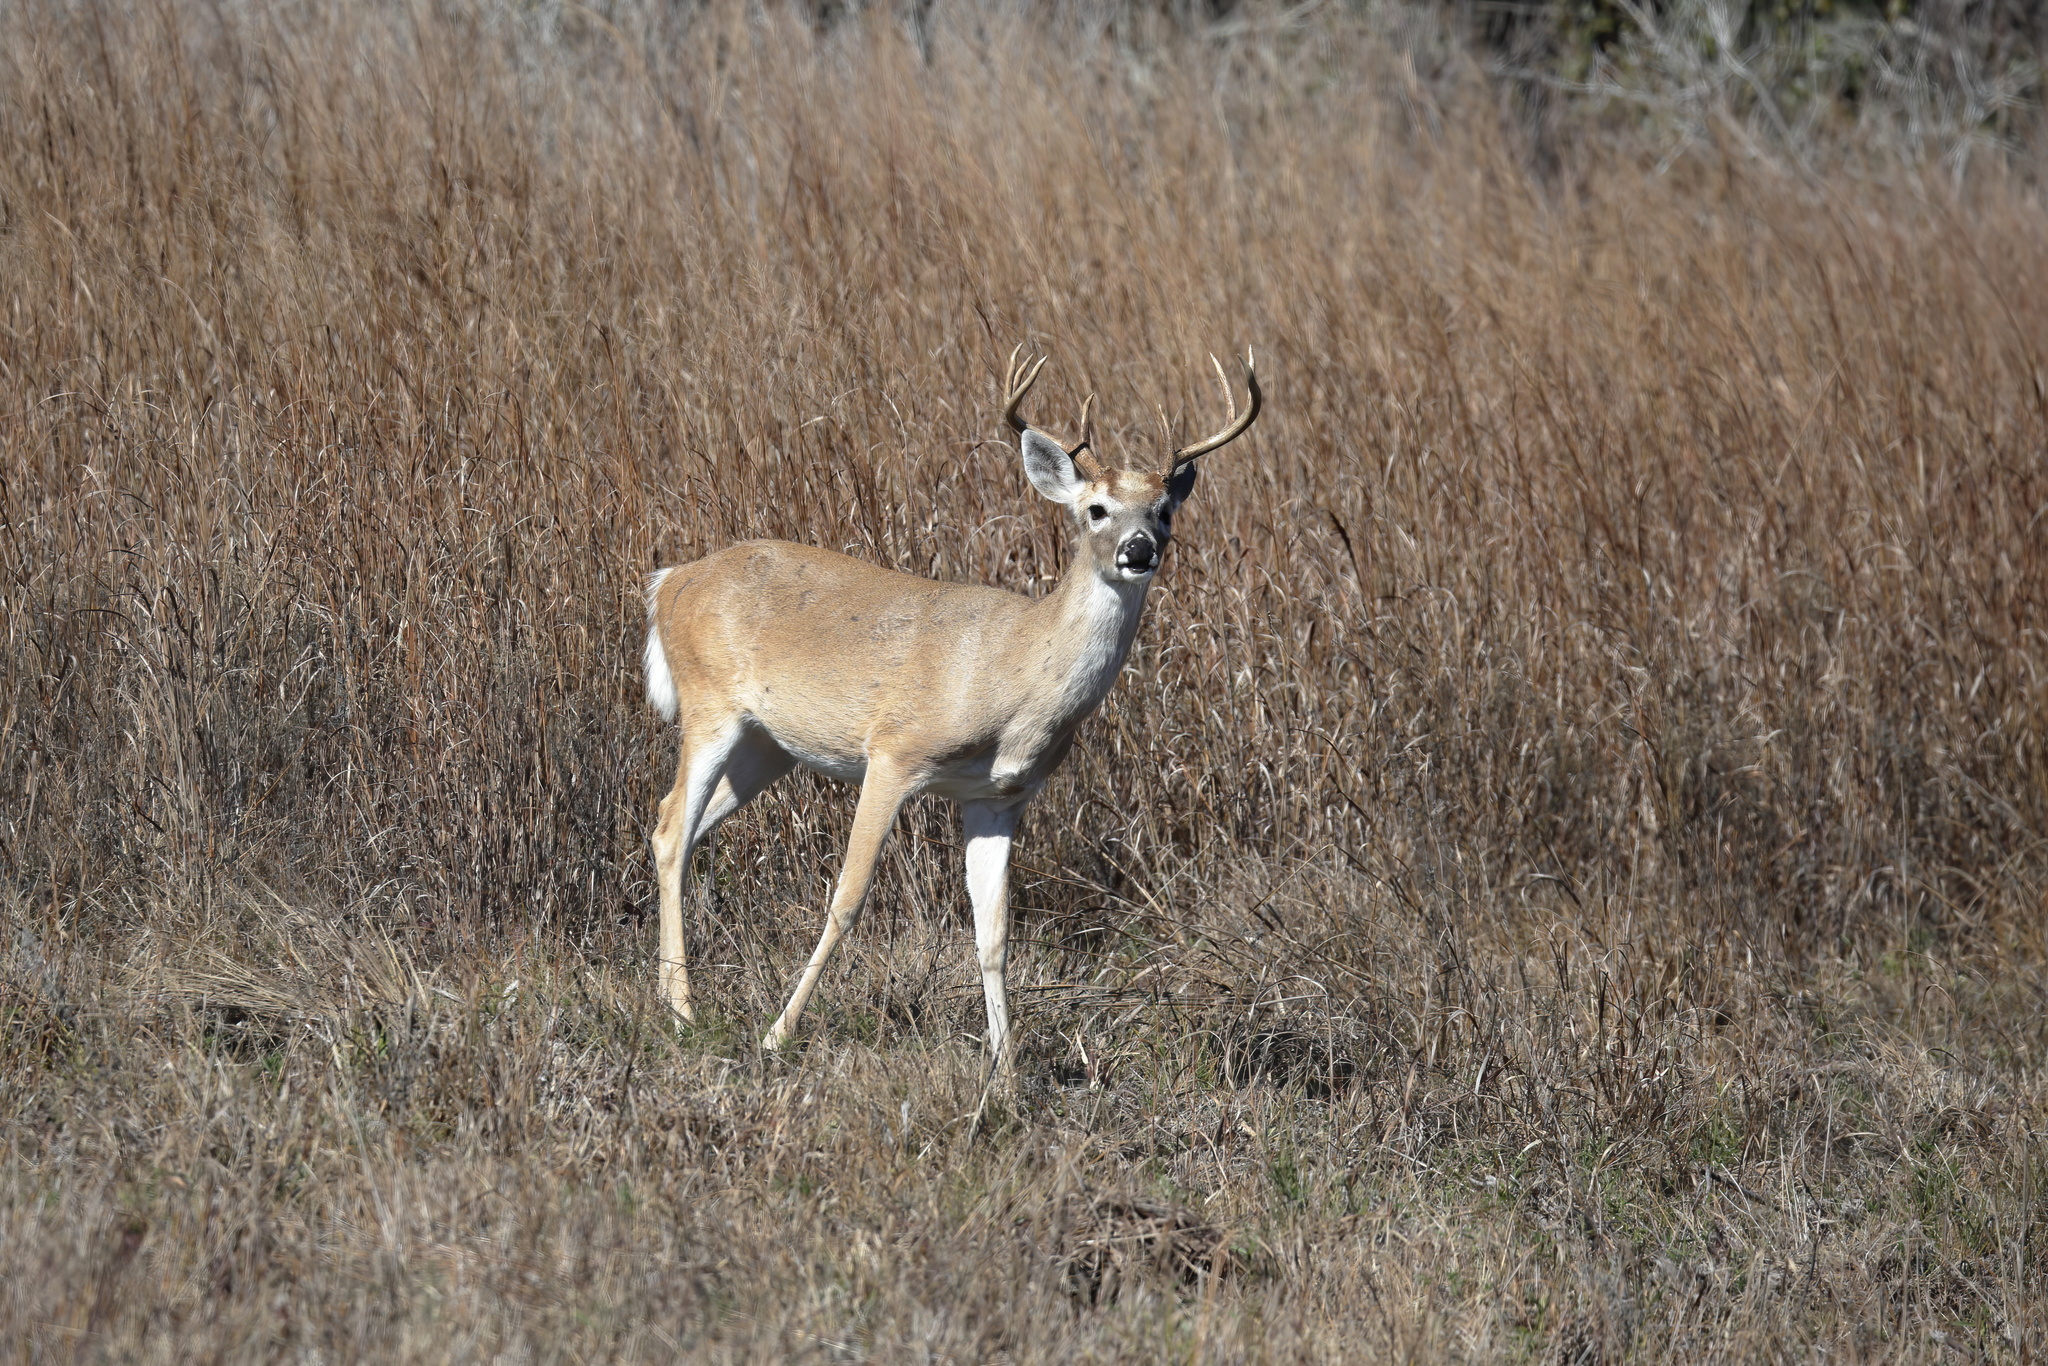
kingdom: Animalia
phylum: Chordata
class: Mammalia
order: Artiodactyla
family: Cervidae
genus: Odocoileus
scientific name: Odocoileus virginianus
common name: White-tailed deer
